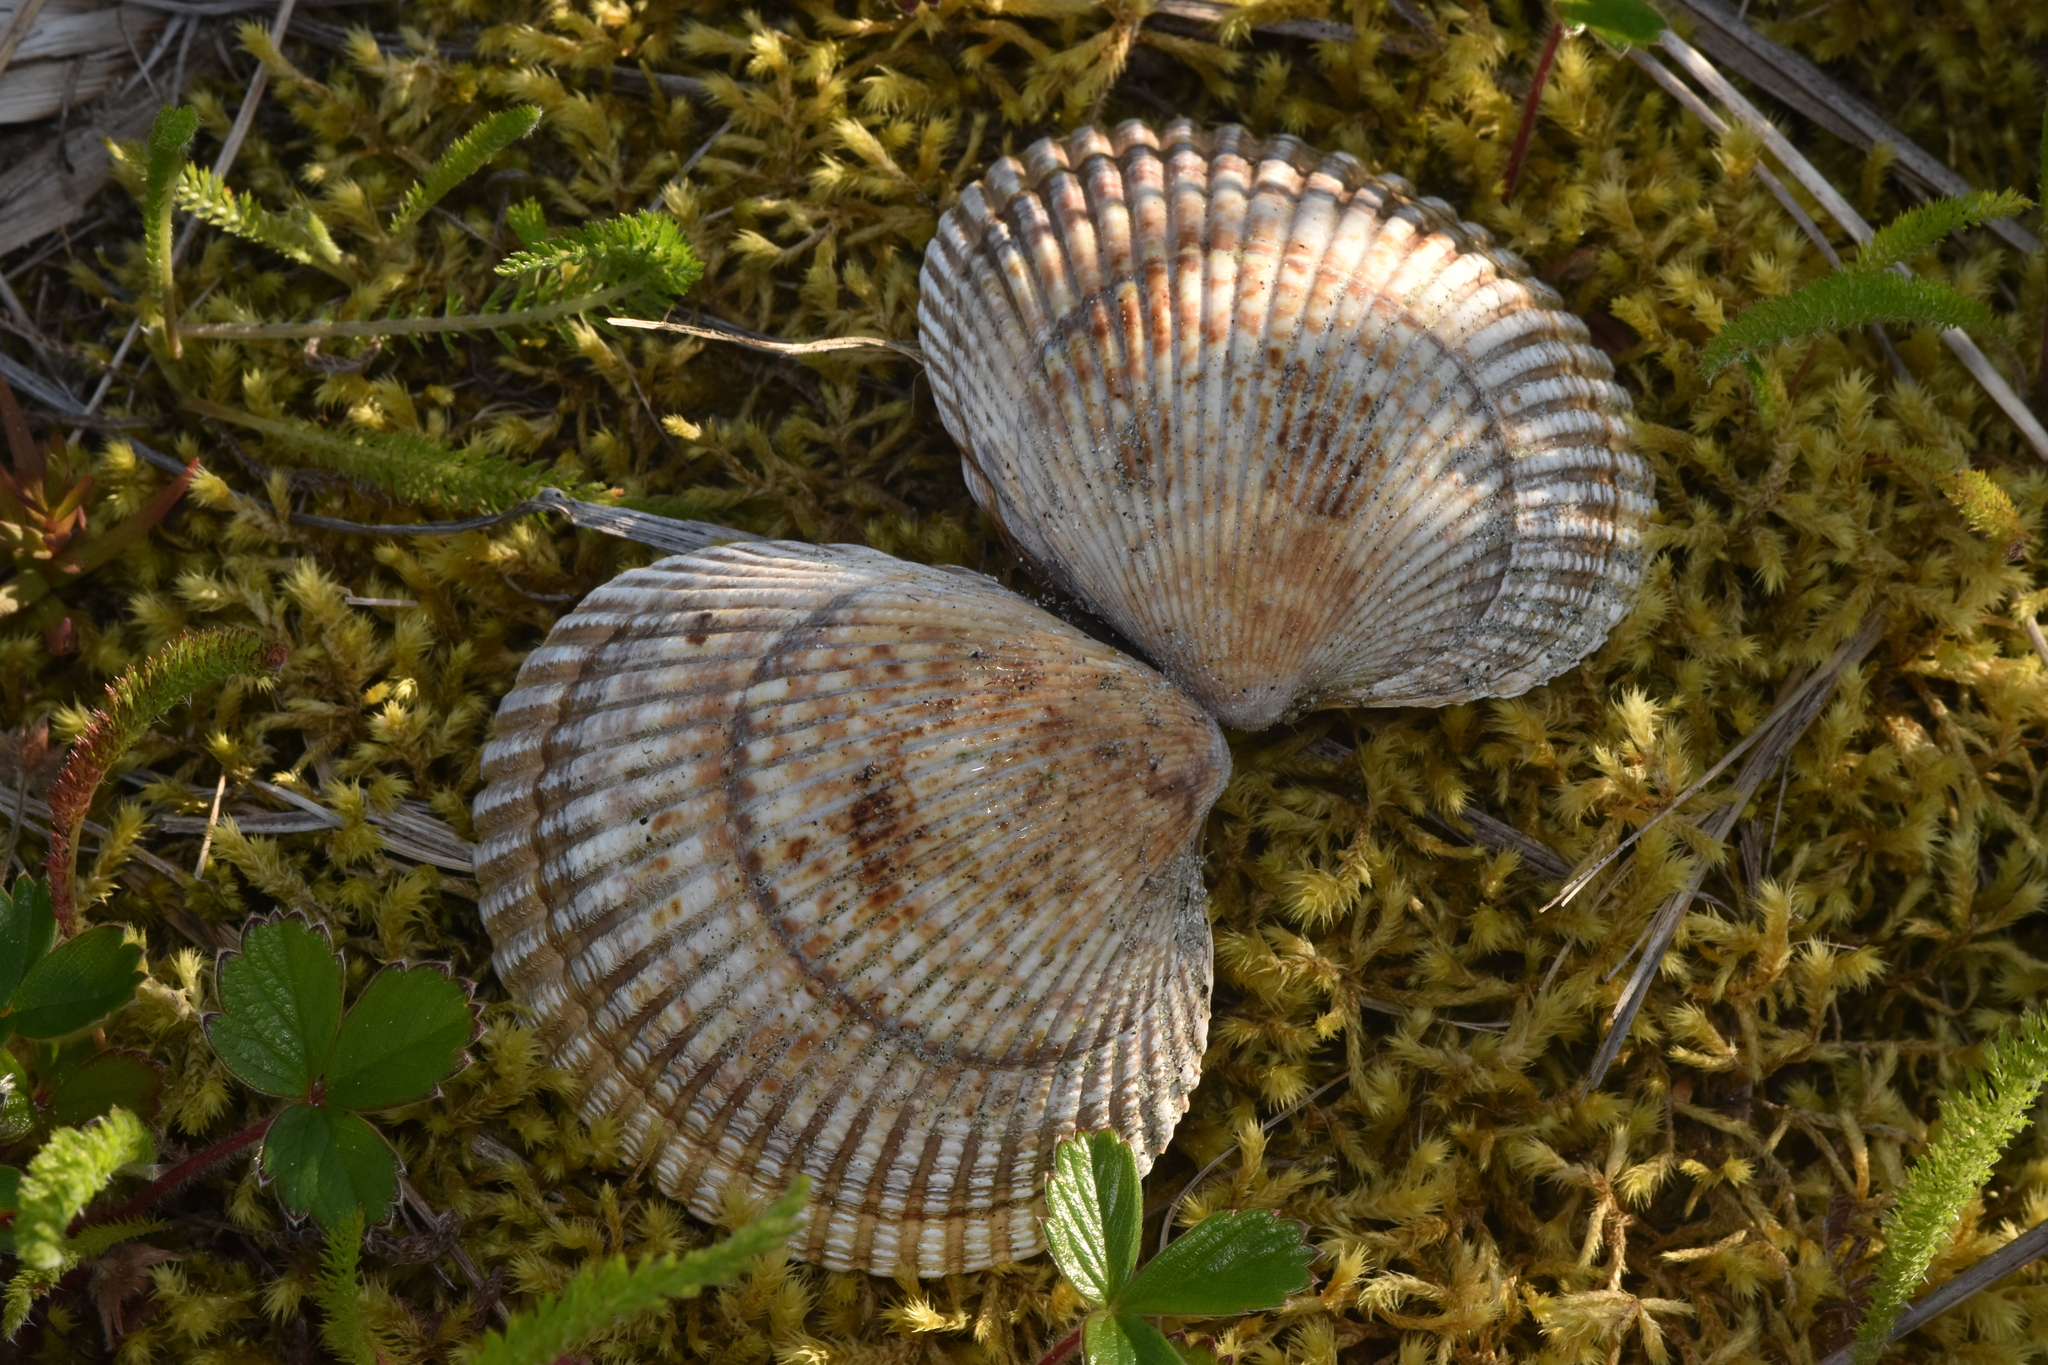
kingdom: Animalia
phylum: Mollusca
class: Bivalvia
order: Cardiida
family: Cardiidae
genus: Clinocardium
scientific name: Clinocardium nuttallii
